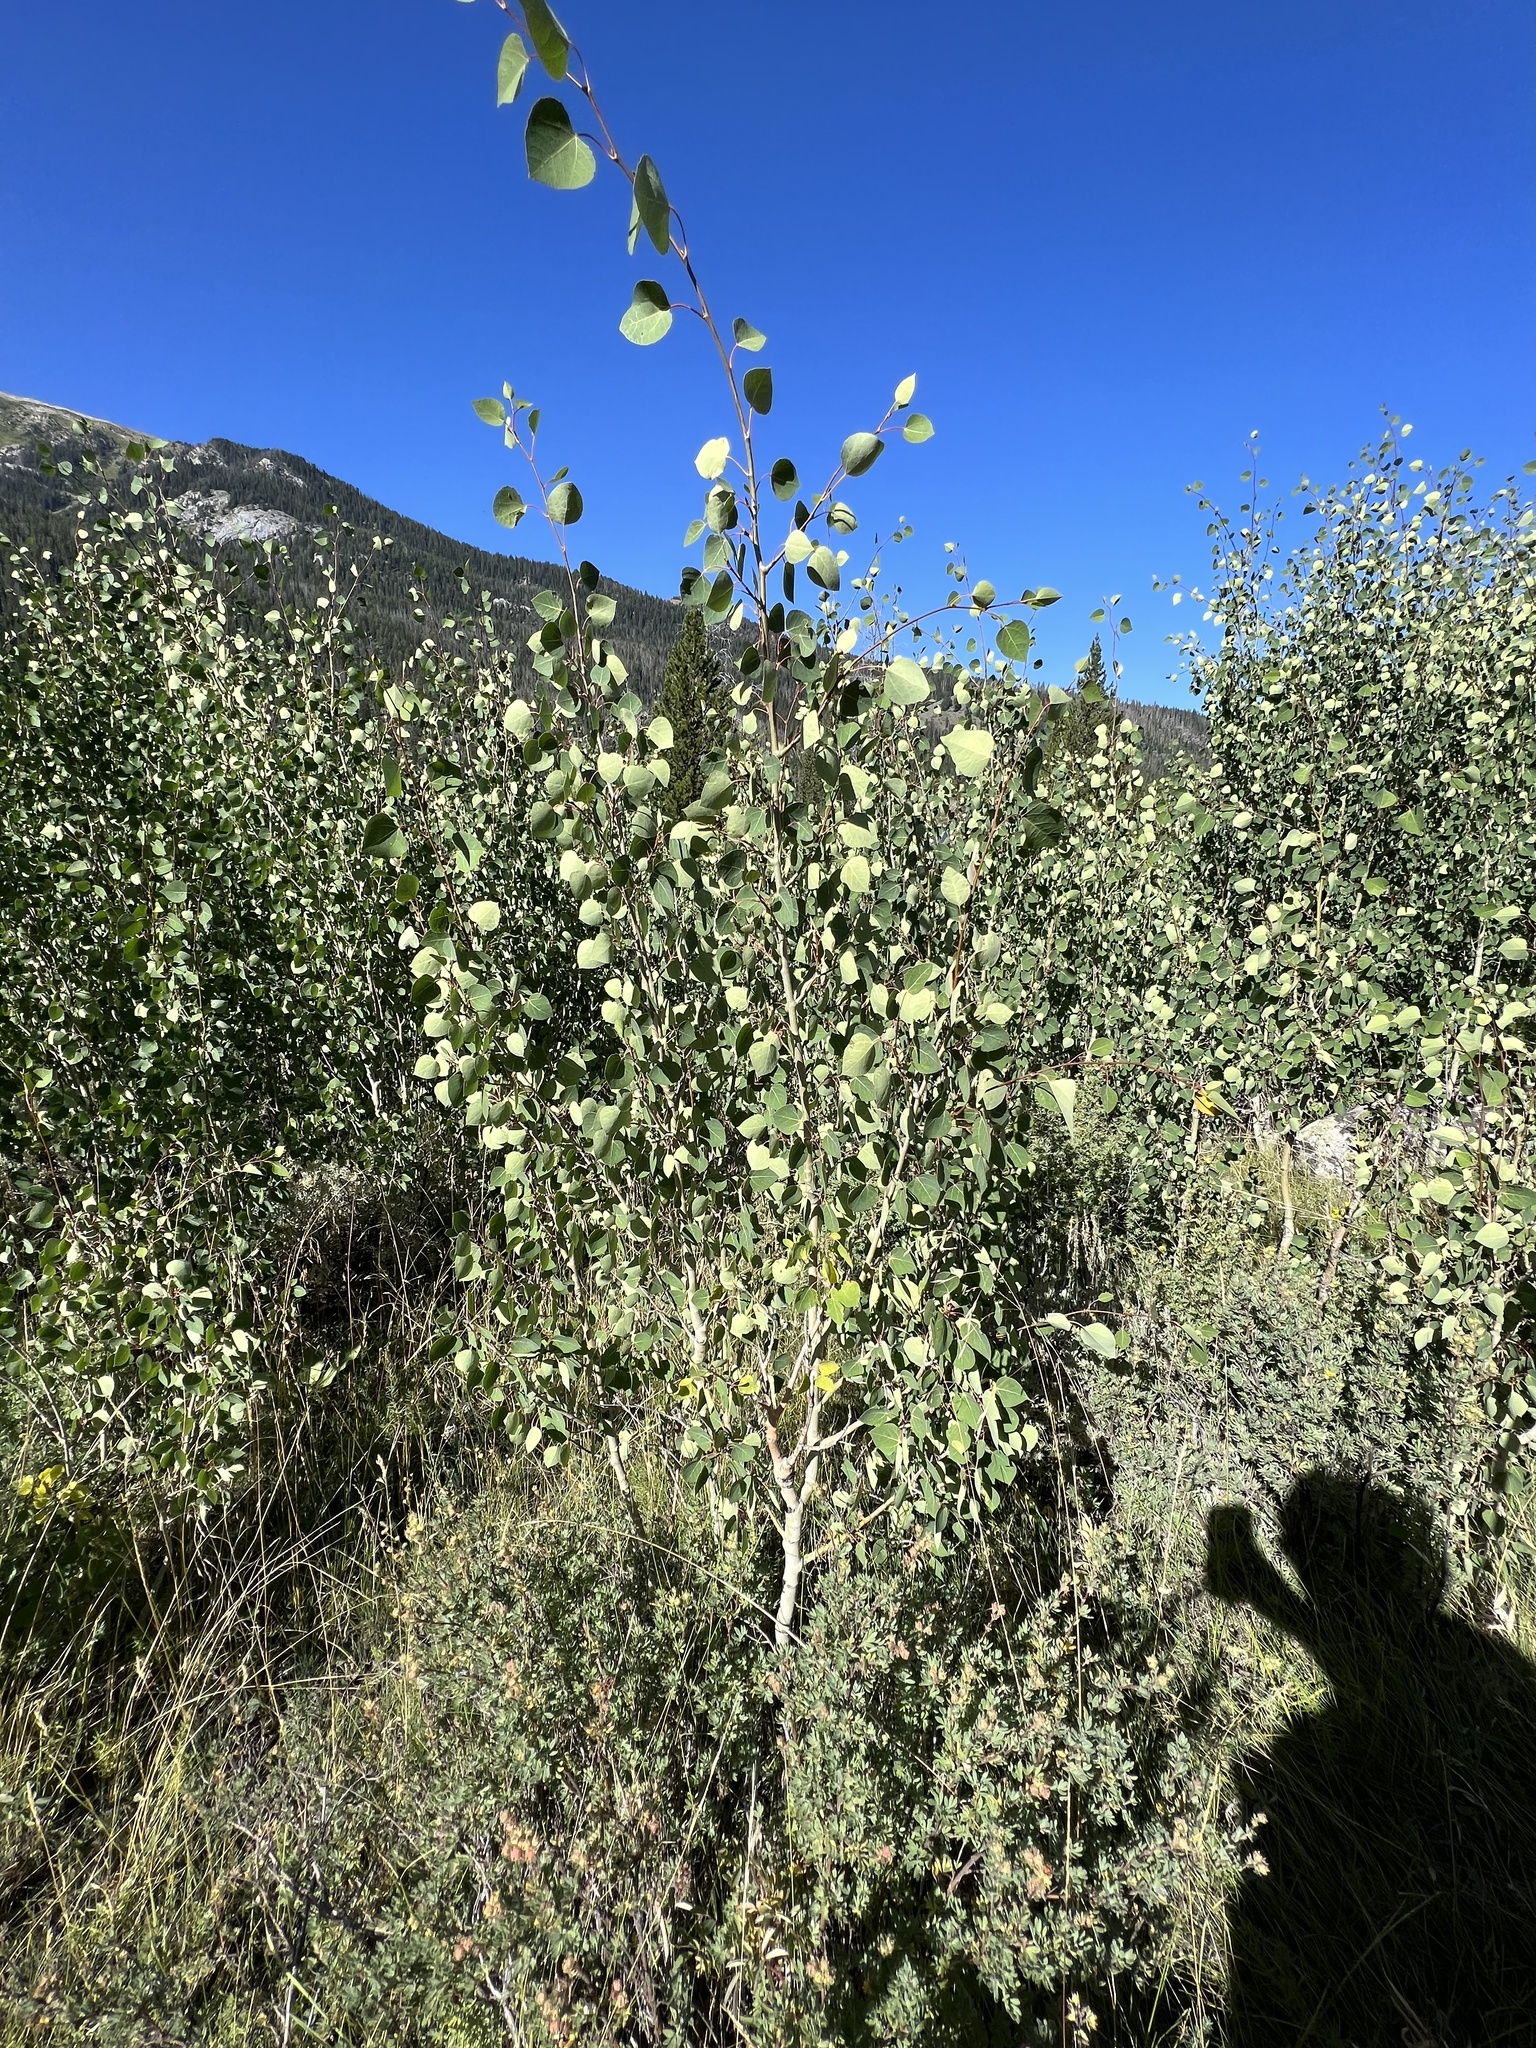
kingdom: Plantae
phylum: Tracheophyta
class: Magnoliopsida
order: Malpighiales
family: Salicaceae
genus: Populus
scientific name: Populus tremuloides
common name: Quaking aspen
